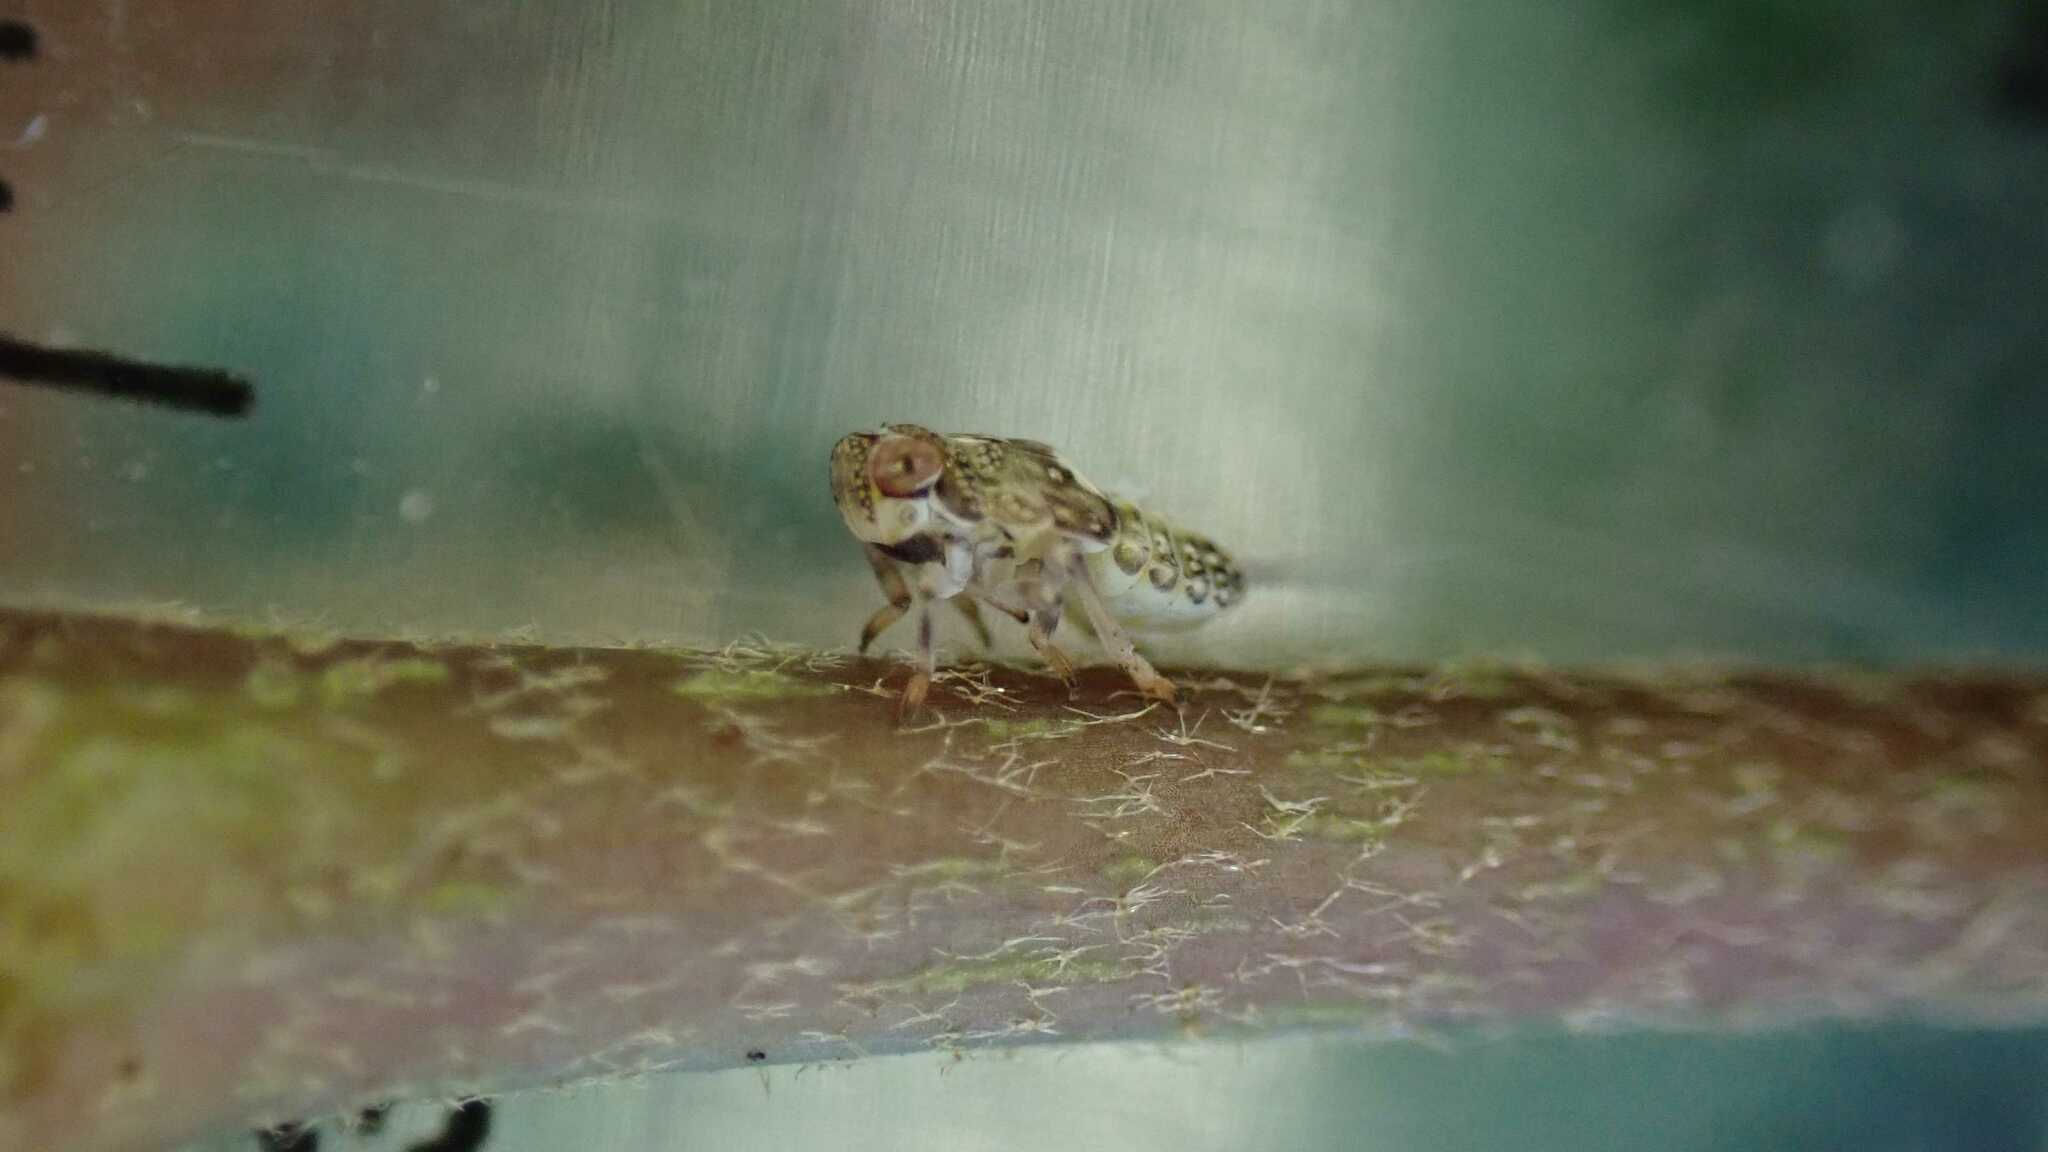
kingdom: Animalia
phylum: Arthropoda
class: Insecta
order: Hemiptera
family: Issidae
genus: Issus
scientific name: Issus coleoptratus
